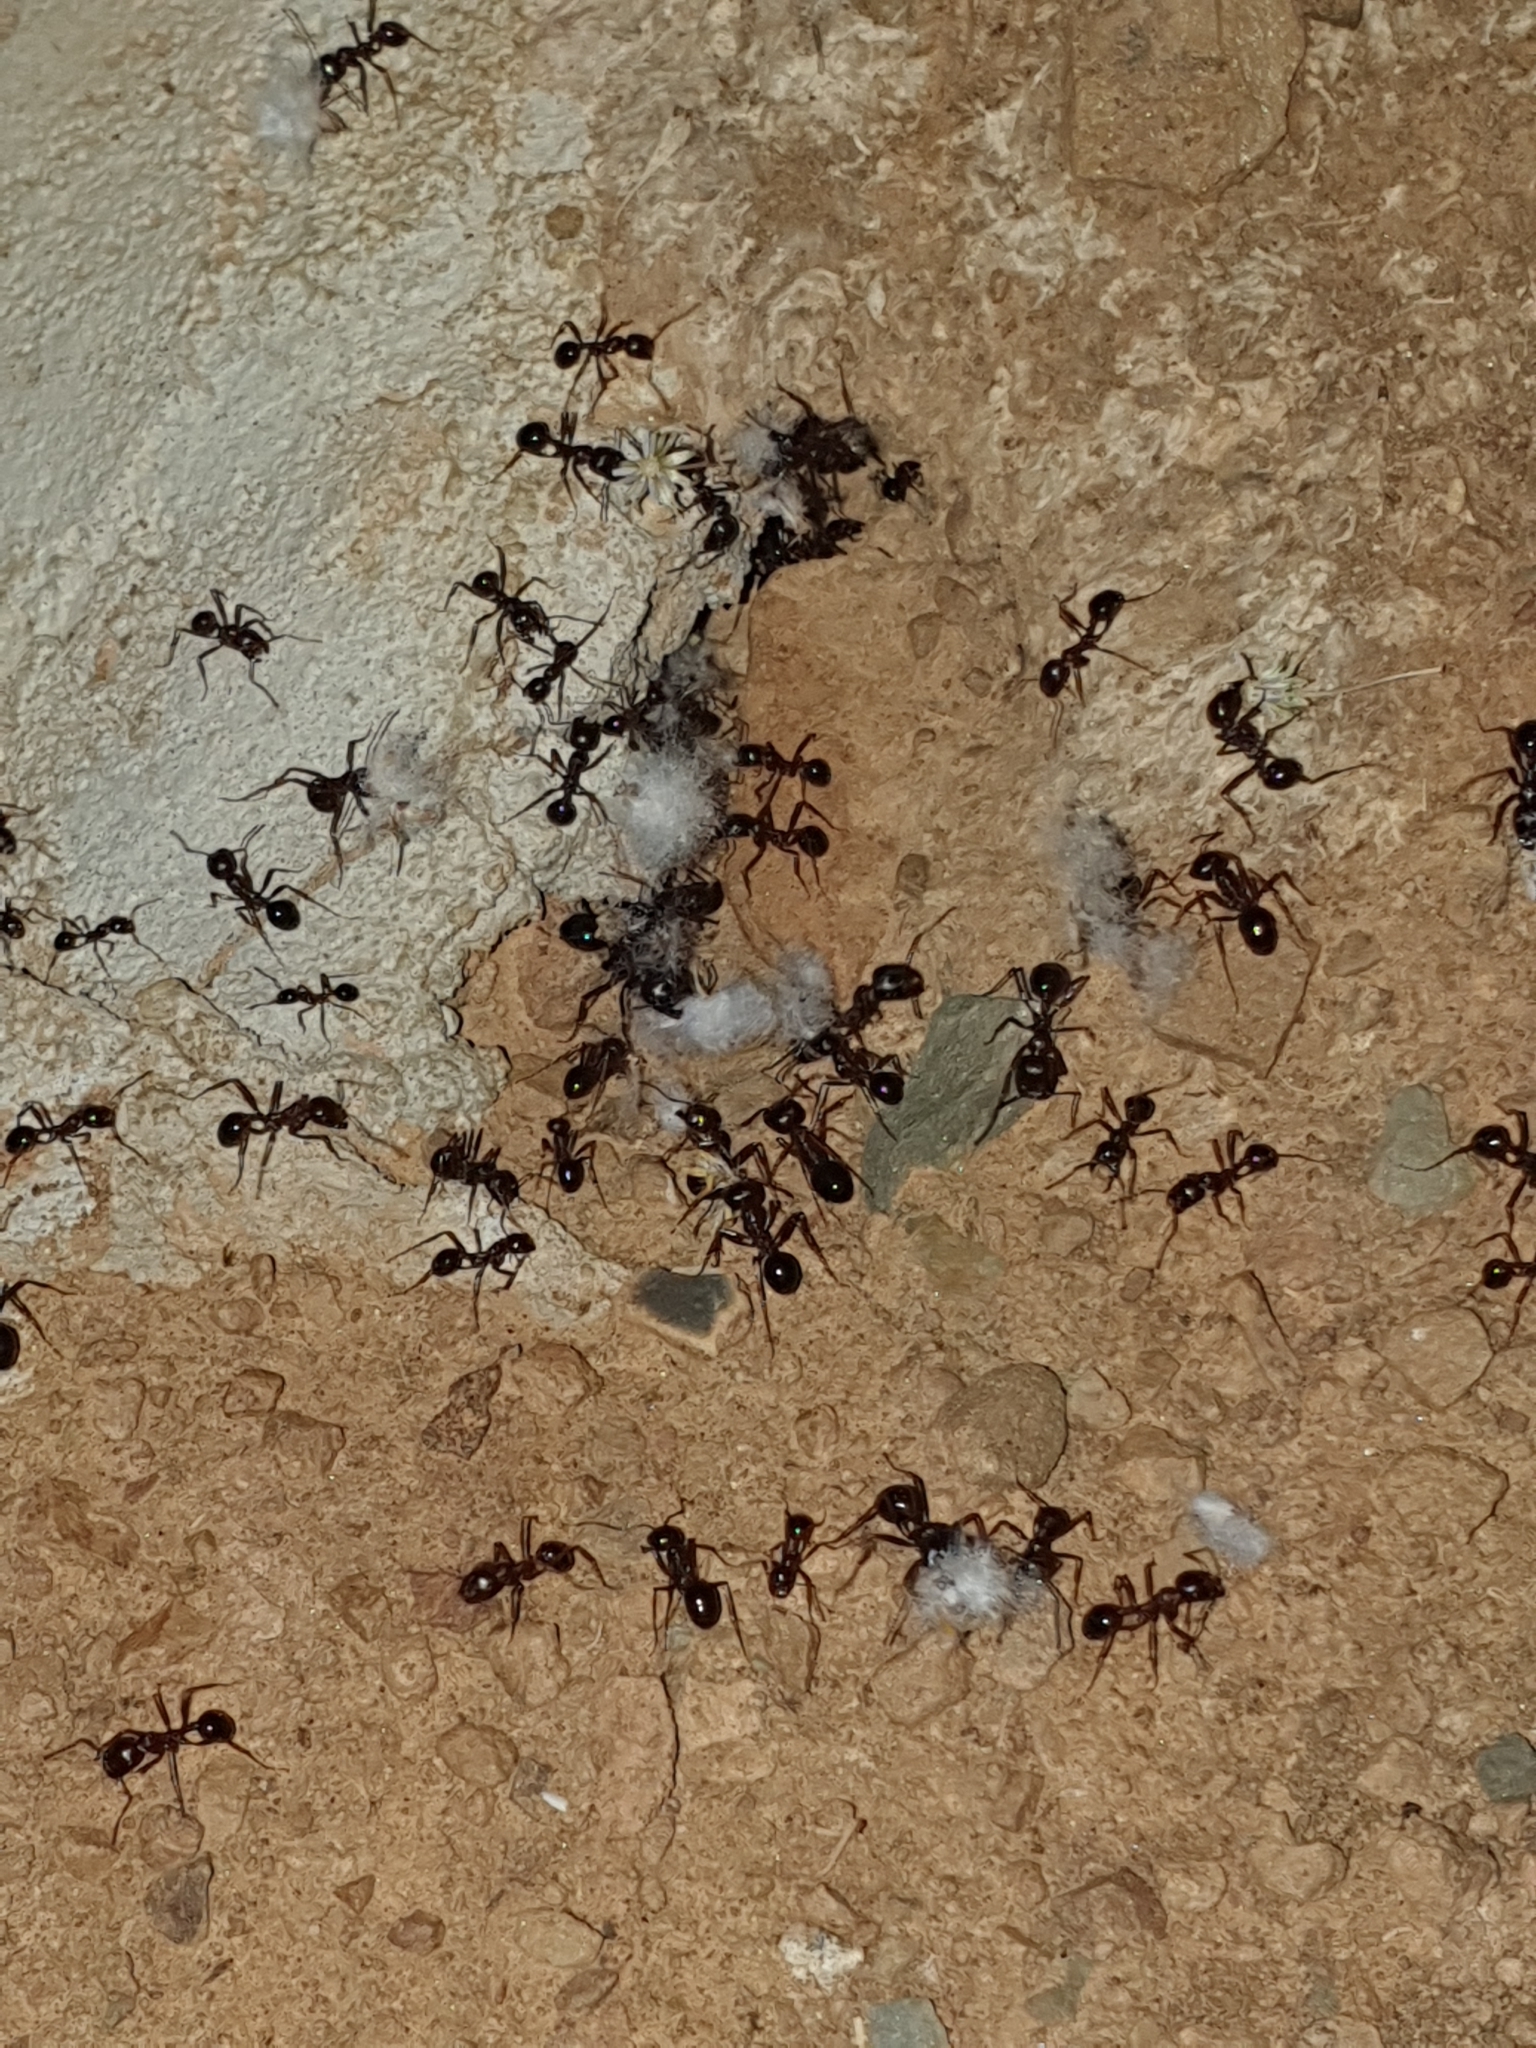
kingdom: Animalia
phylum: Arthropoda
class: Insecta
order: Hymenoptera
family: Formicidae
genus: Messor
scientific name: Messor capensis
